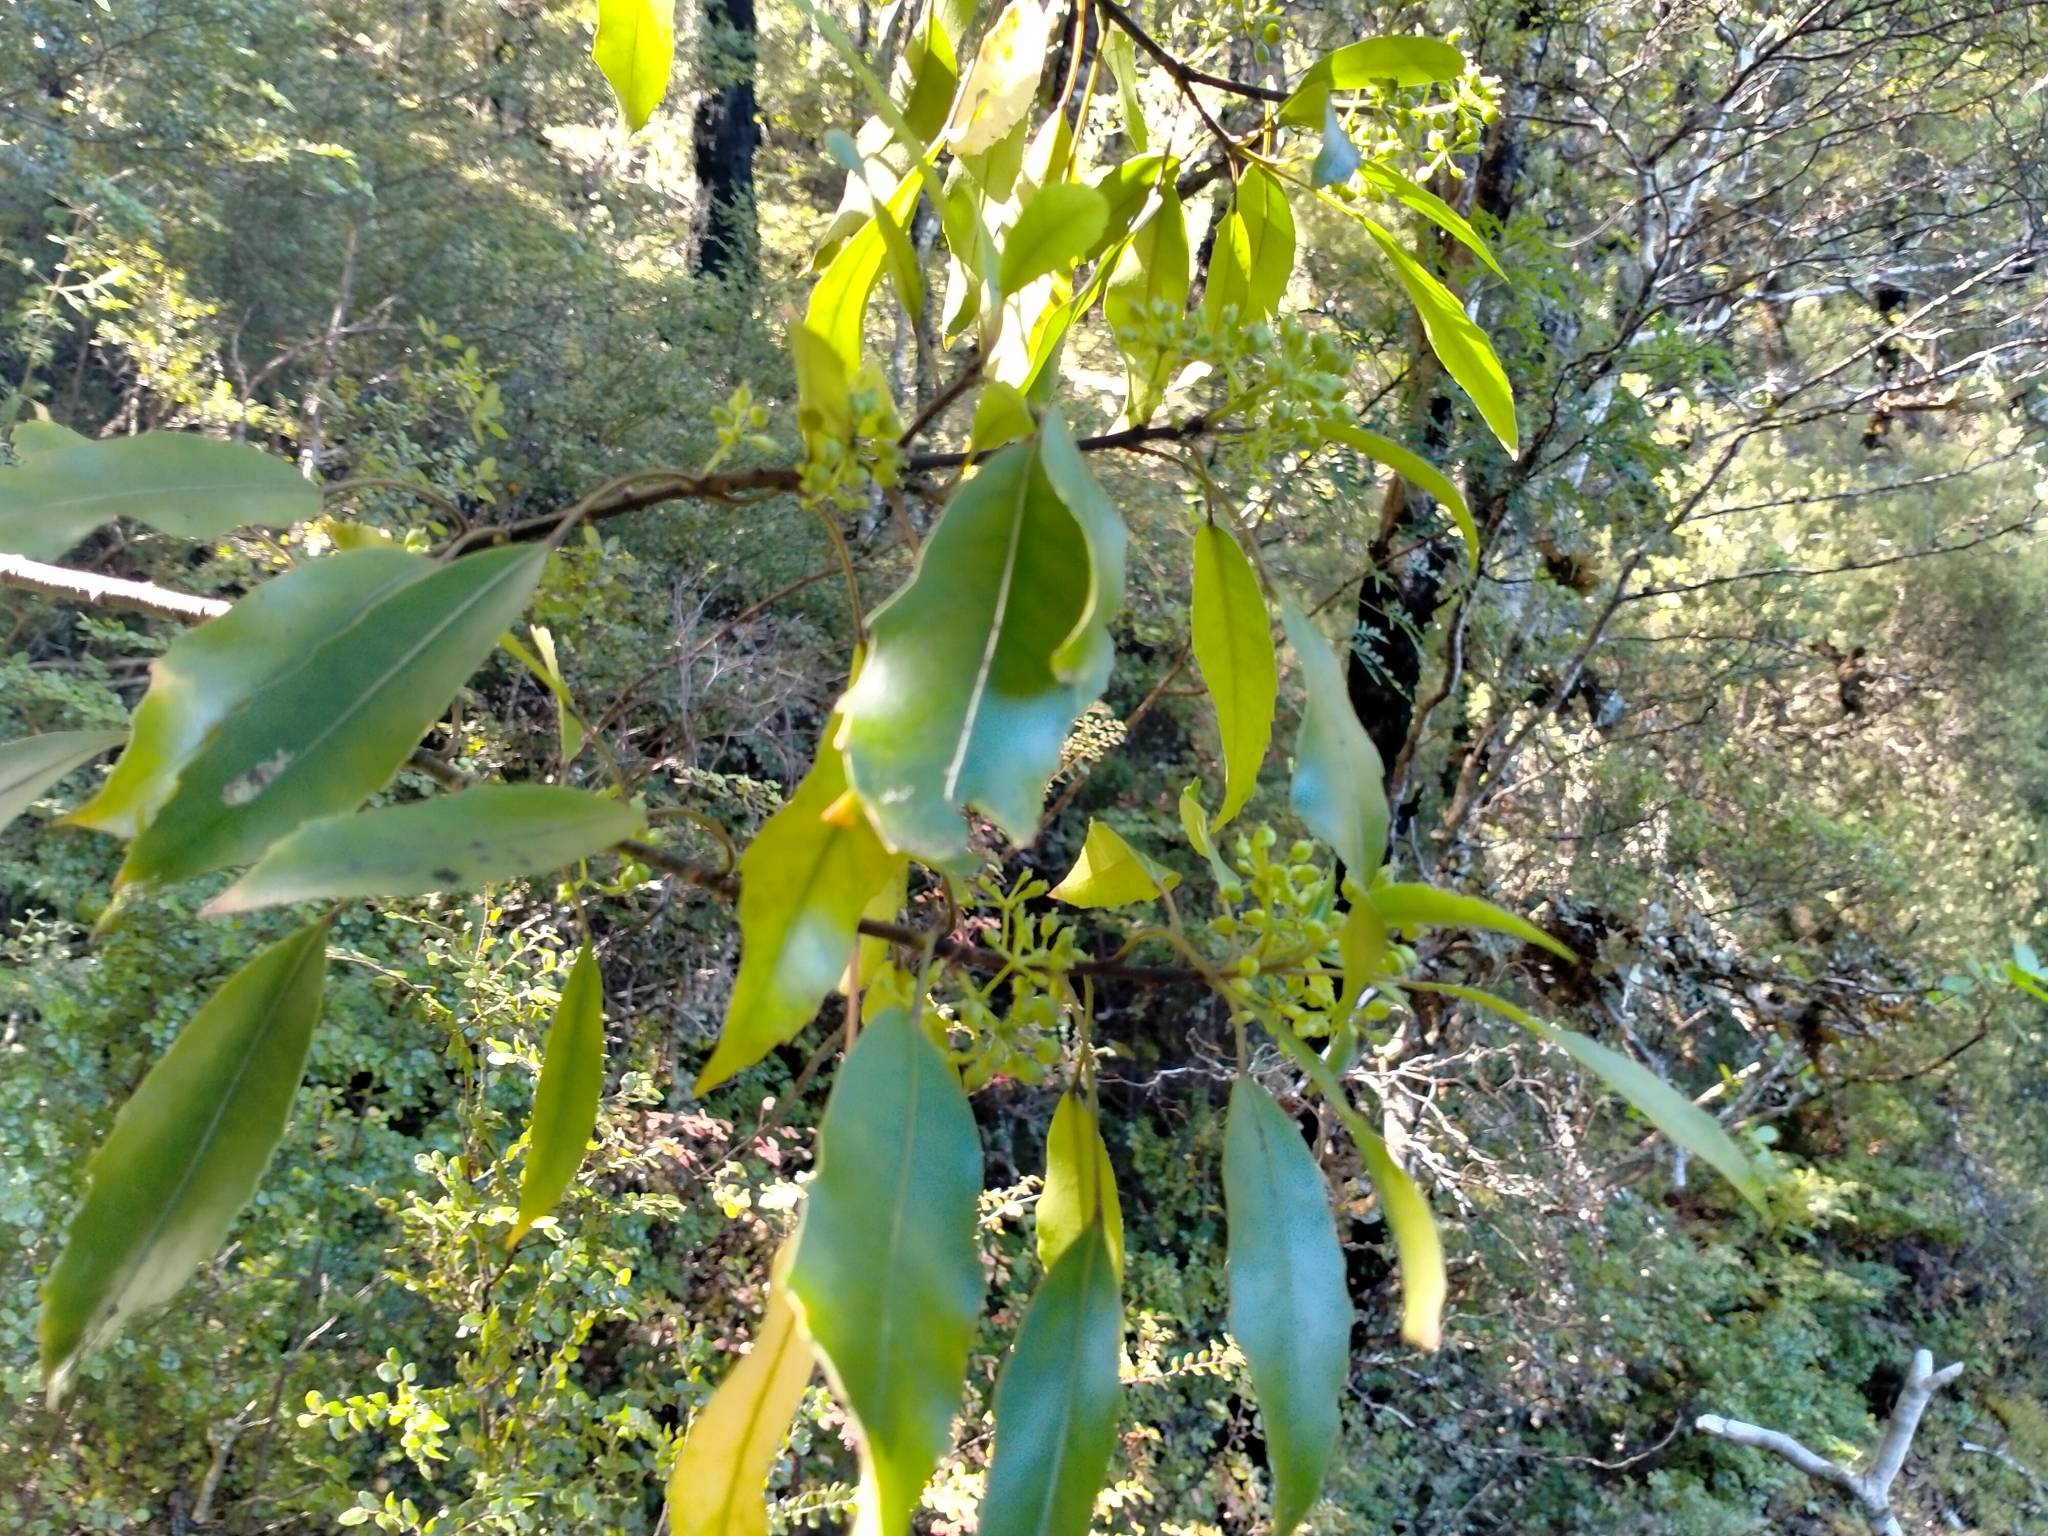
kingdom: Plantae
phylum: Tracheophyta
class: Magnoliopsida
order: Apiales
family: Araliaceae
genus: Raukaua
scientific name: Raukaua simplex
